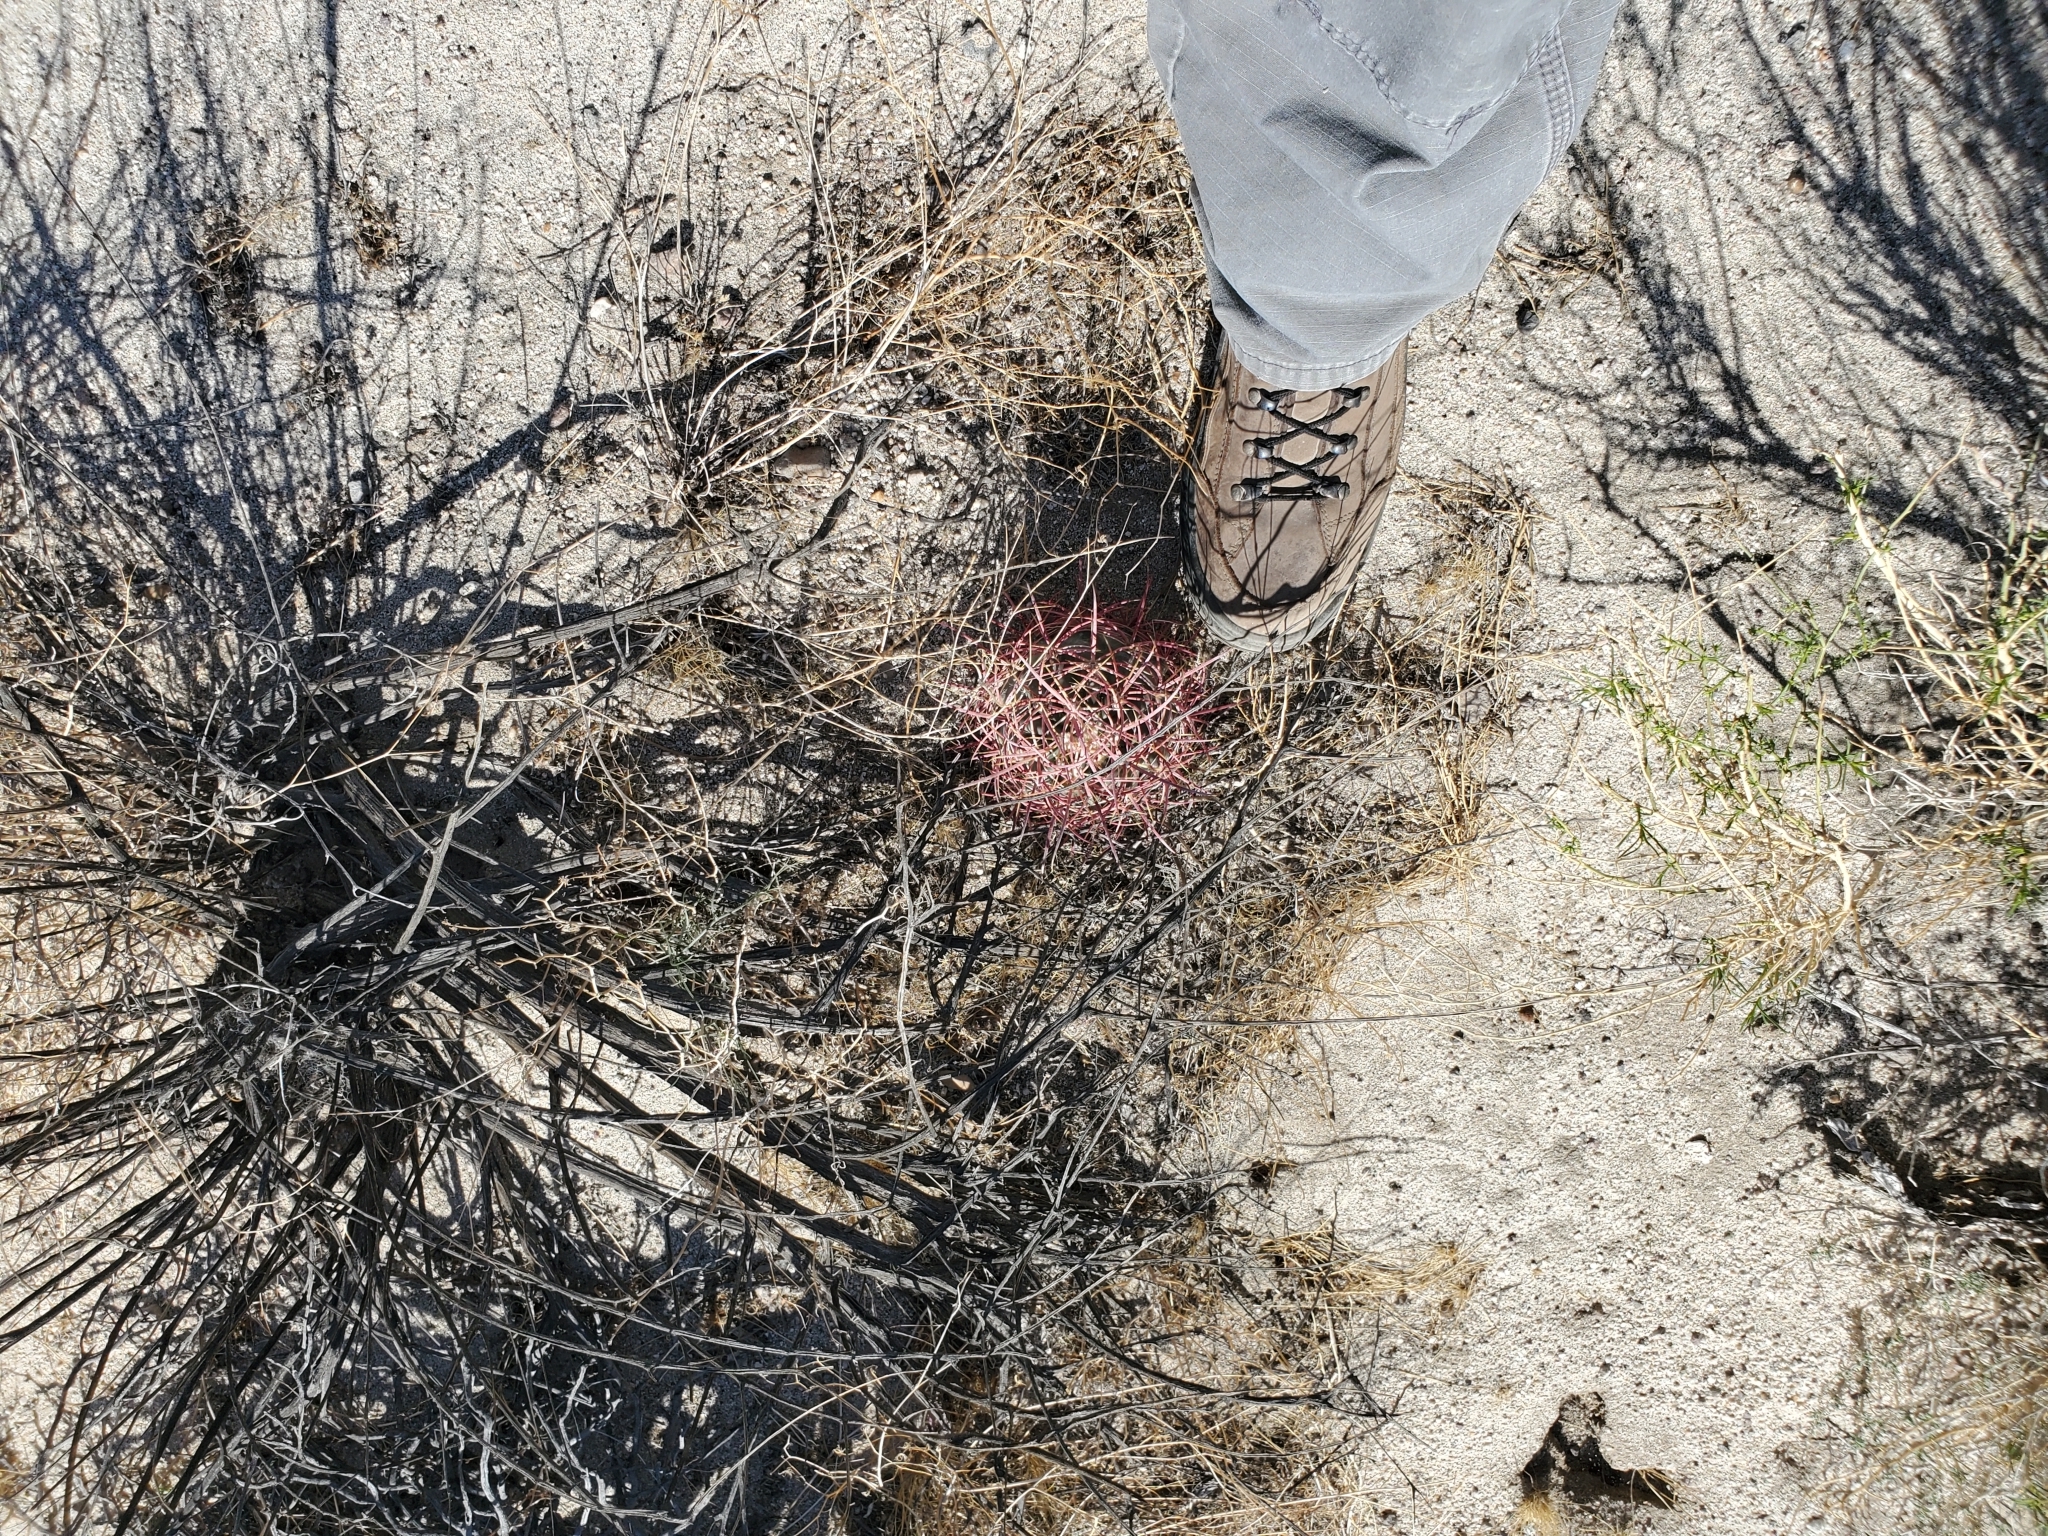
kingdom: Plantae
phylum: Tracheophyta
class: Magnoliopsida
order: Caryophyllales
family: Cactaceae
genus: Ferocactus
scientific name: Ferocactus cylindraceus
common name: California barrel cactus
